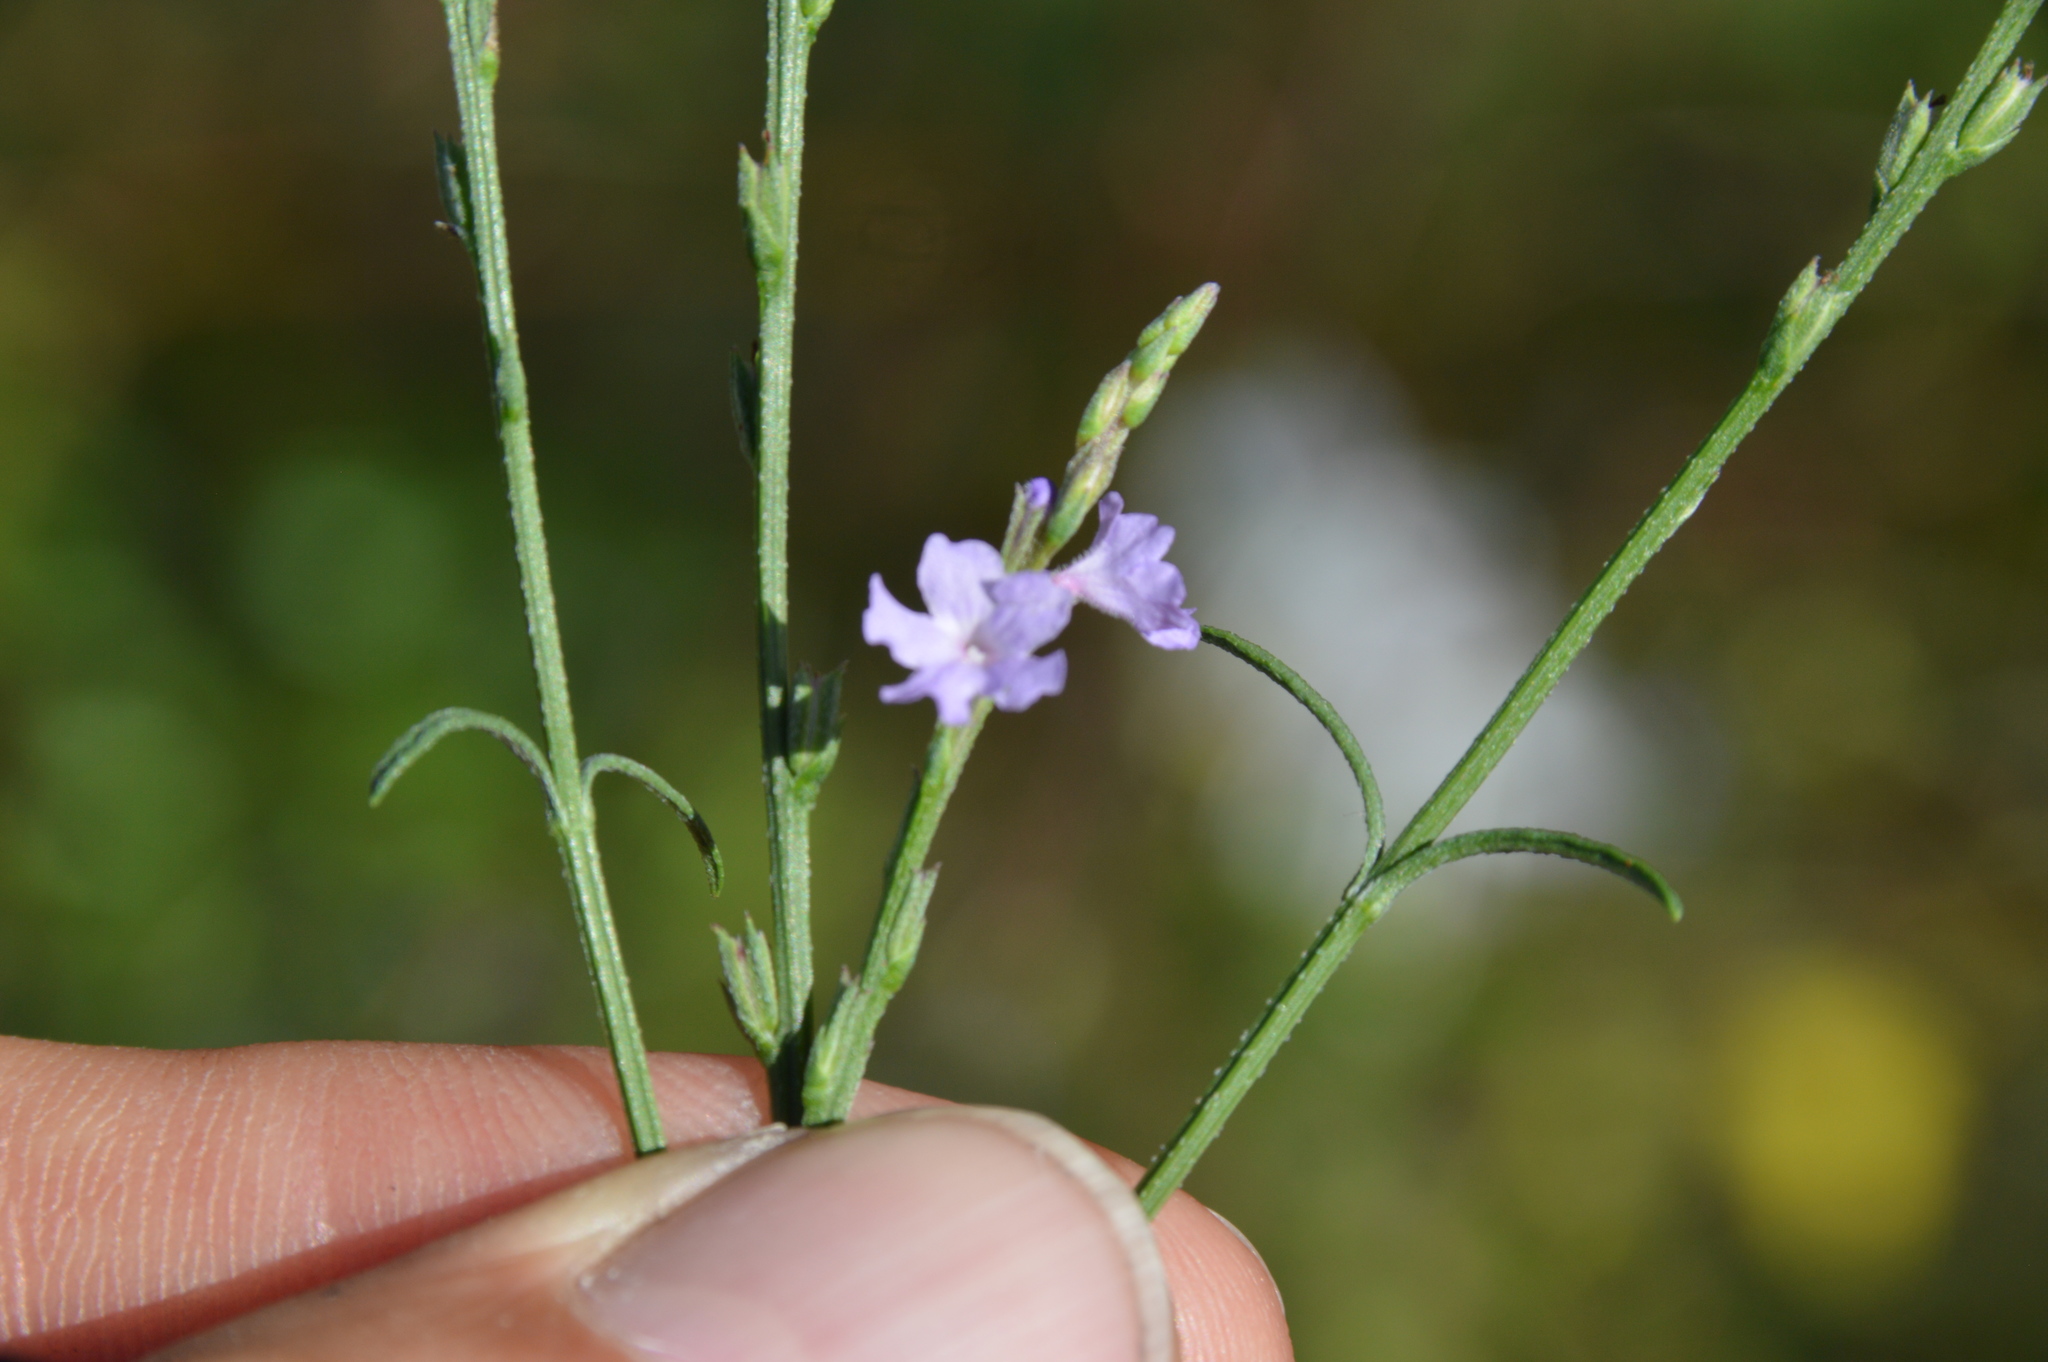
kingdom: Plantae
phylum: Tracheophyta
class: Magnoliopsida
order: Lamiales
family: Verbenaceae
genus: Verbena
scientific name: Verbena halei
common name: Texas vervain
